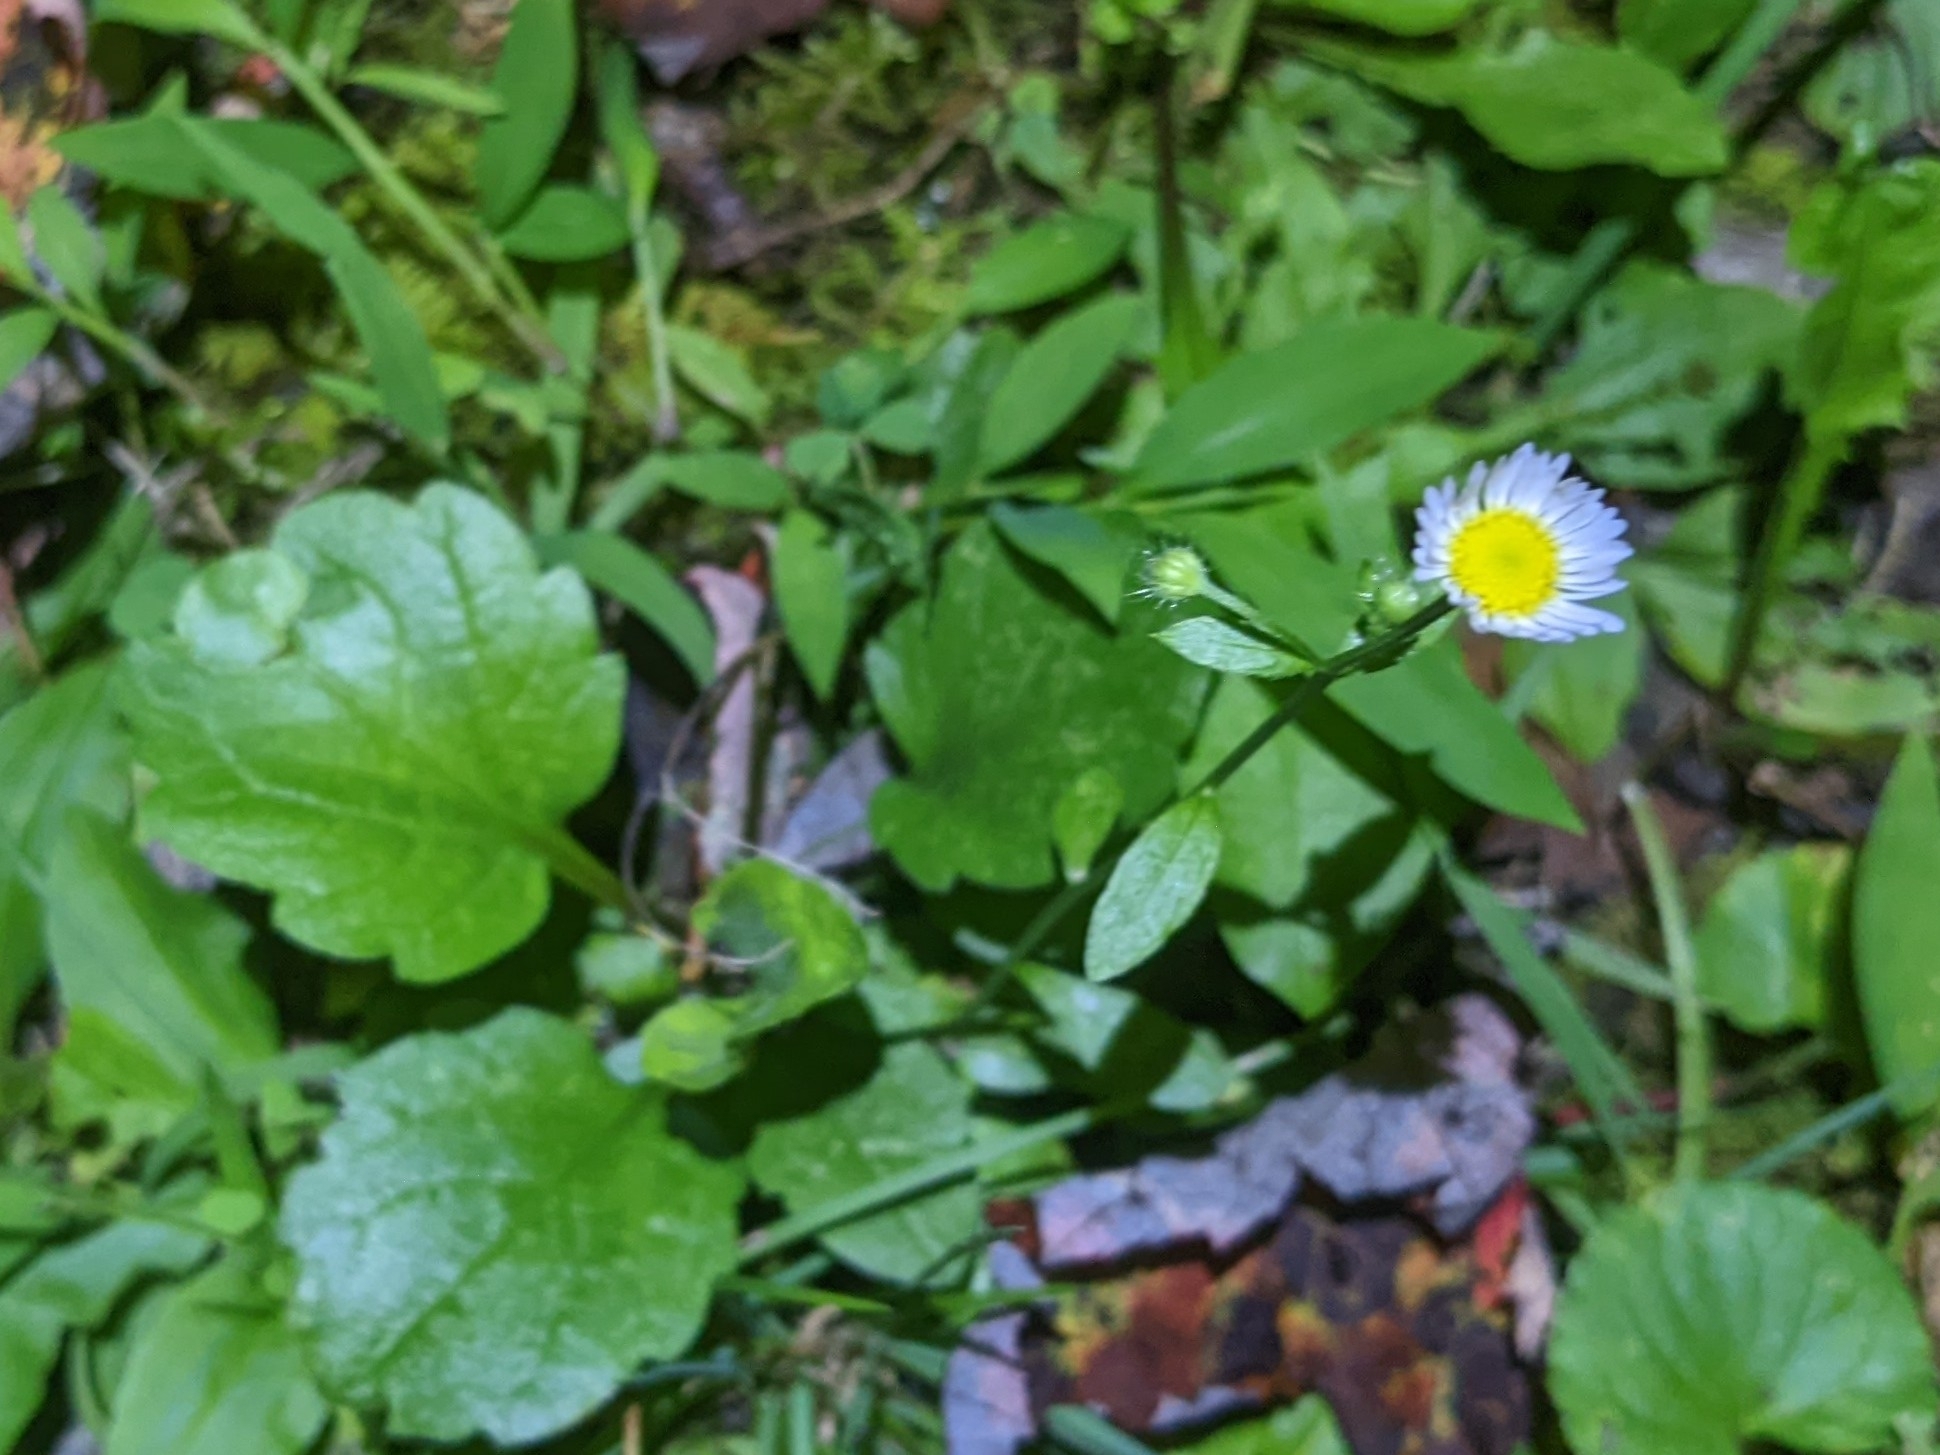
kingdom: Plantae
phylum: Tracheophyta
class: Magnoliopsida
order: Asterales
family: Asteraceae
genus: Erigeron
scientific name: Erigeron annuus
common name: Tall fleabane
